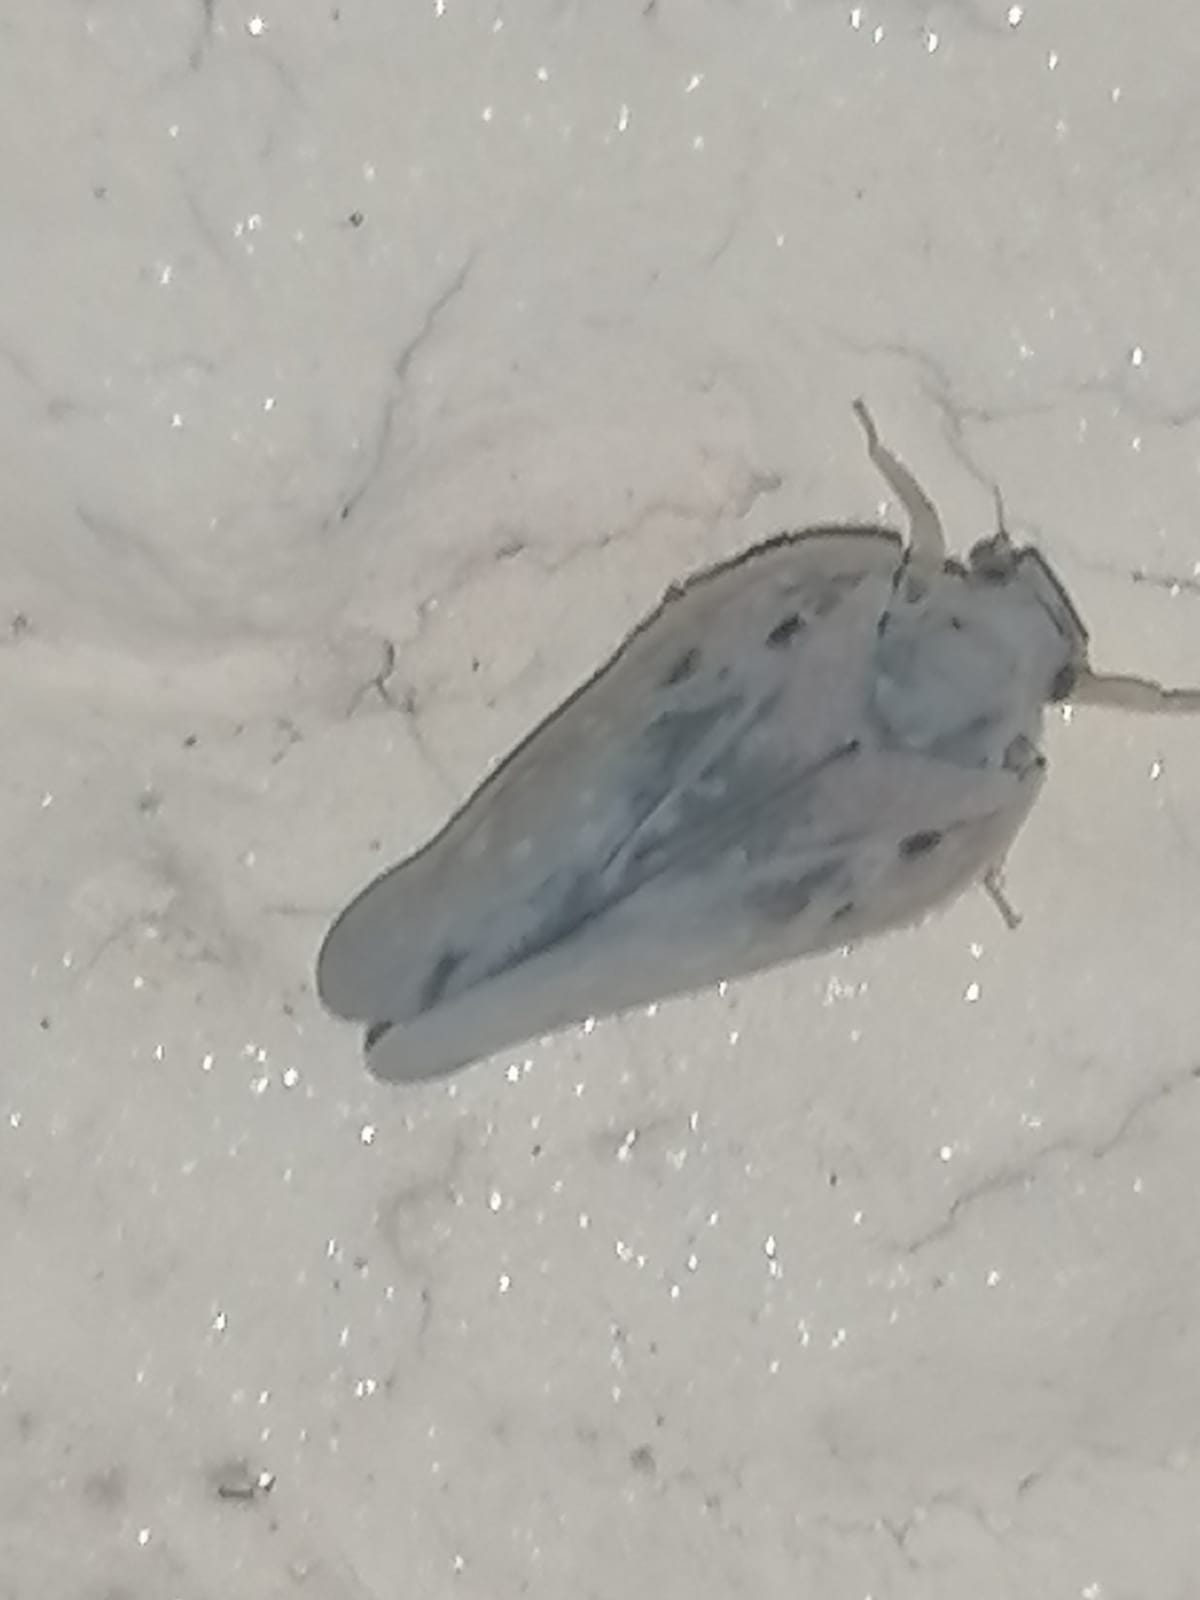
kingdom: Animalia
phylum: Arthropoda
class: Insecta
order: Hemiptera
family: Flatidae
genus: Metcalfa
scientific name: Metcalfa pruinosa
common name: Citrus flatid planthopper
